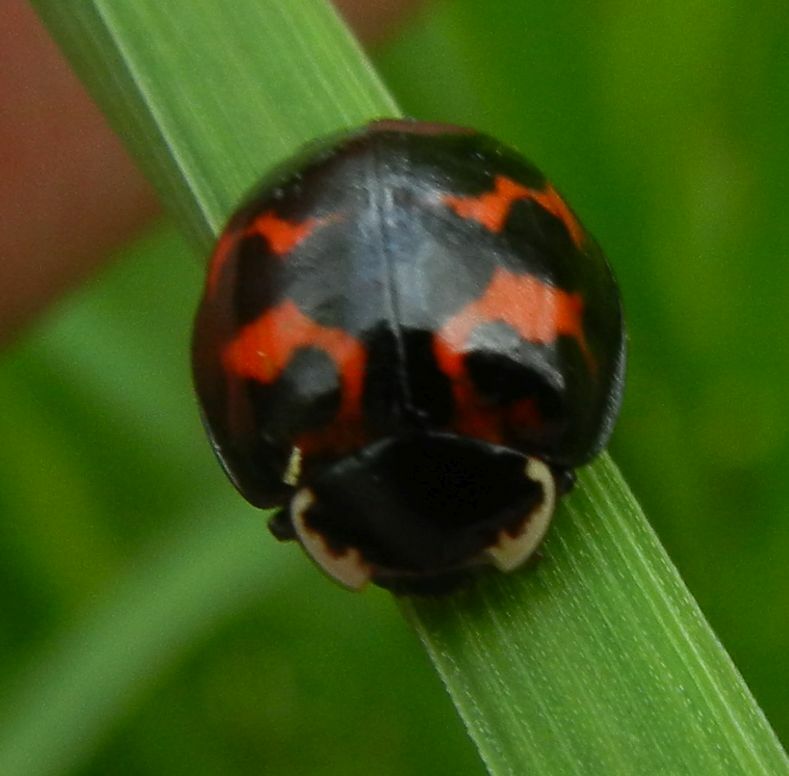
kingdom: Animalia
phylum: Arthropoda
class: Insecta
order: Coleoptera
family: Coccinellidae
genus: Harmonia
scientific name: Harmonia axyridis
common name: Harlequin ladybird
